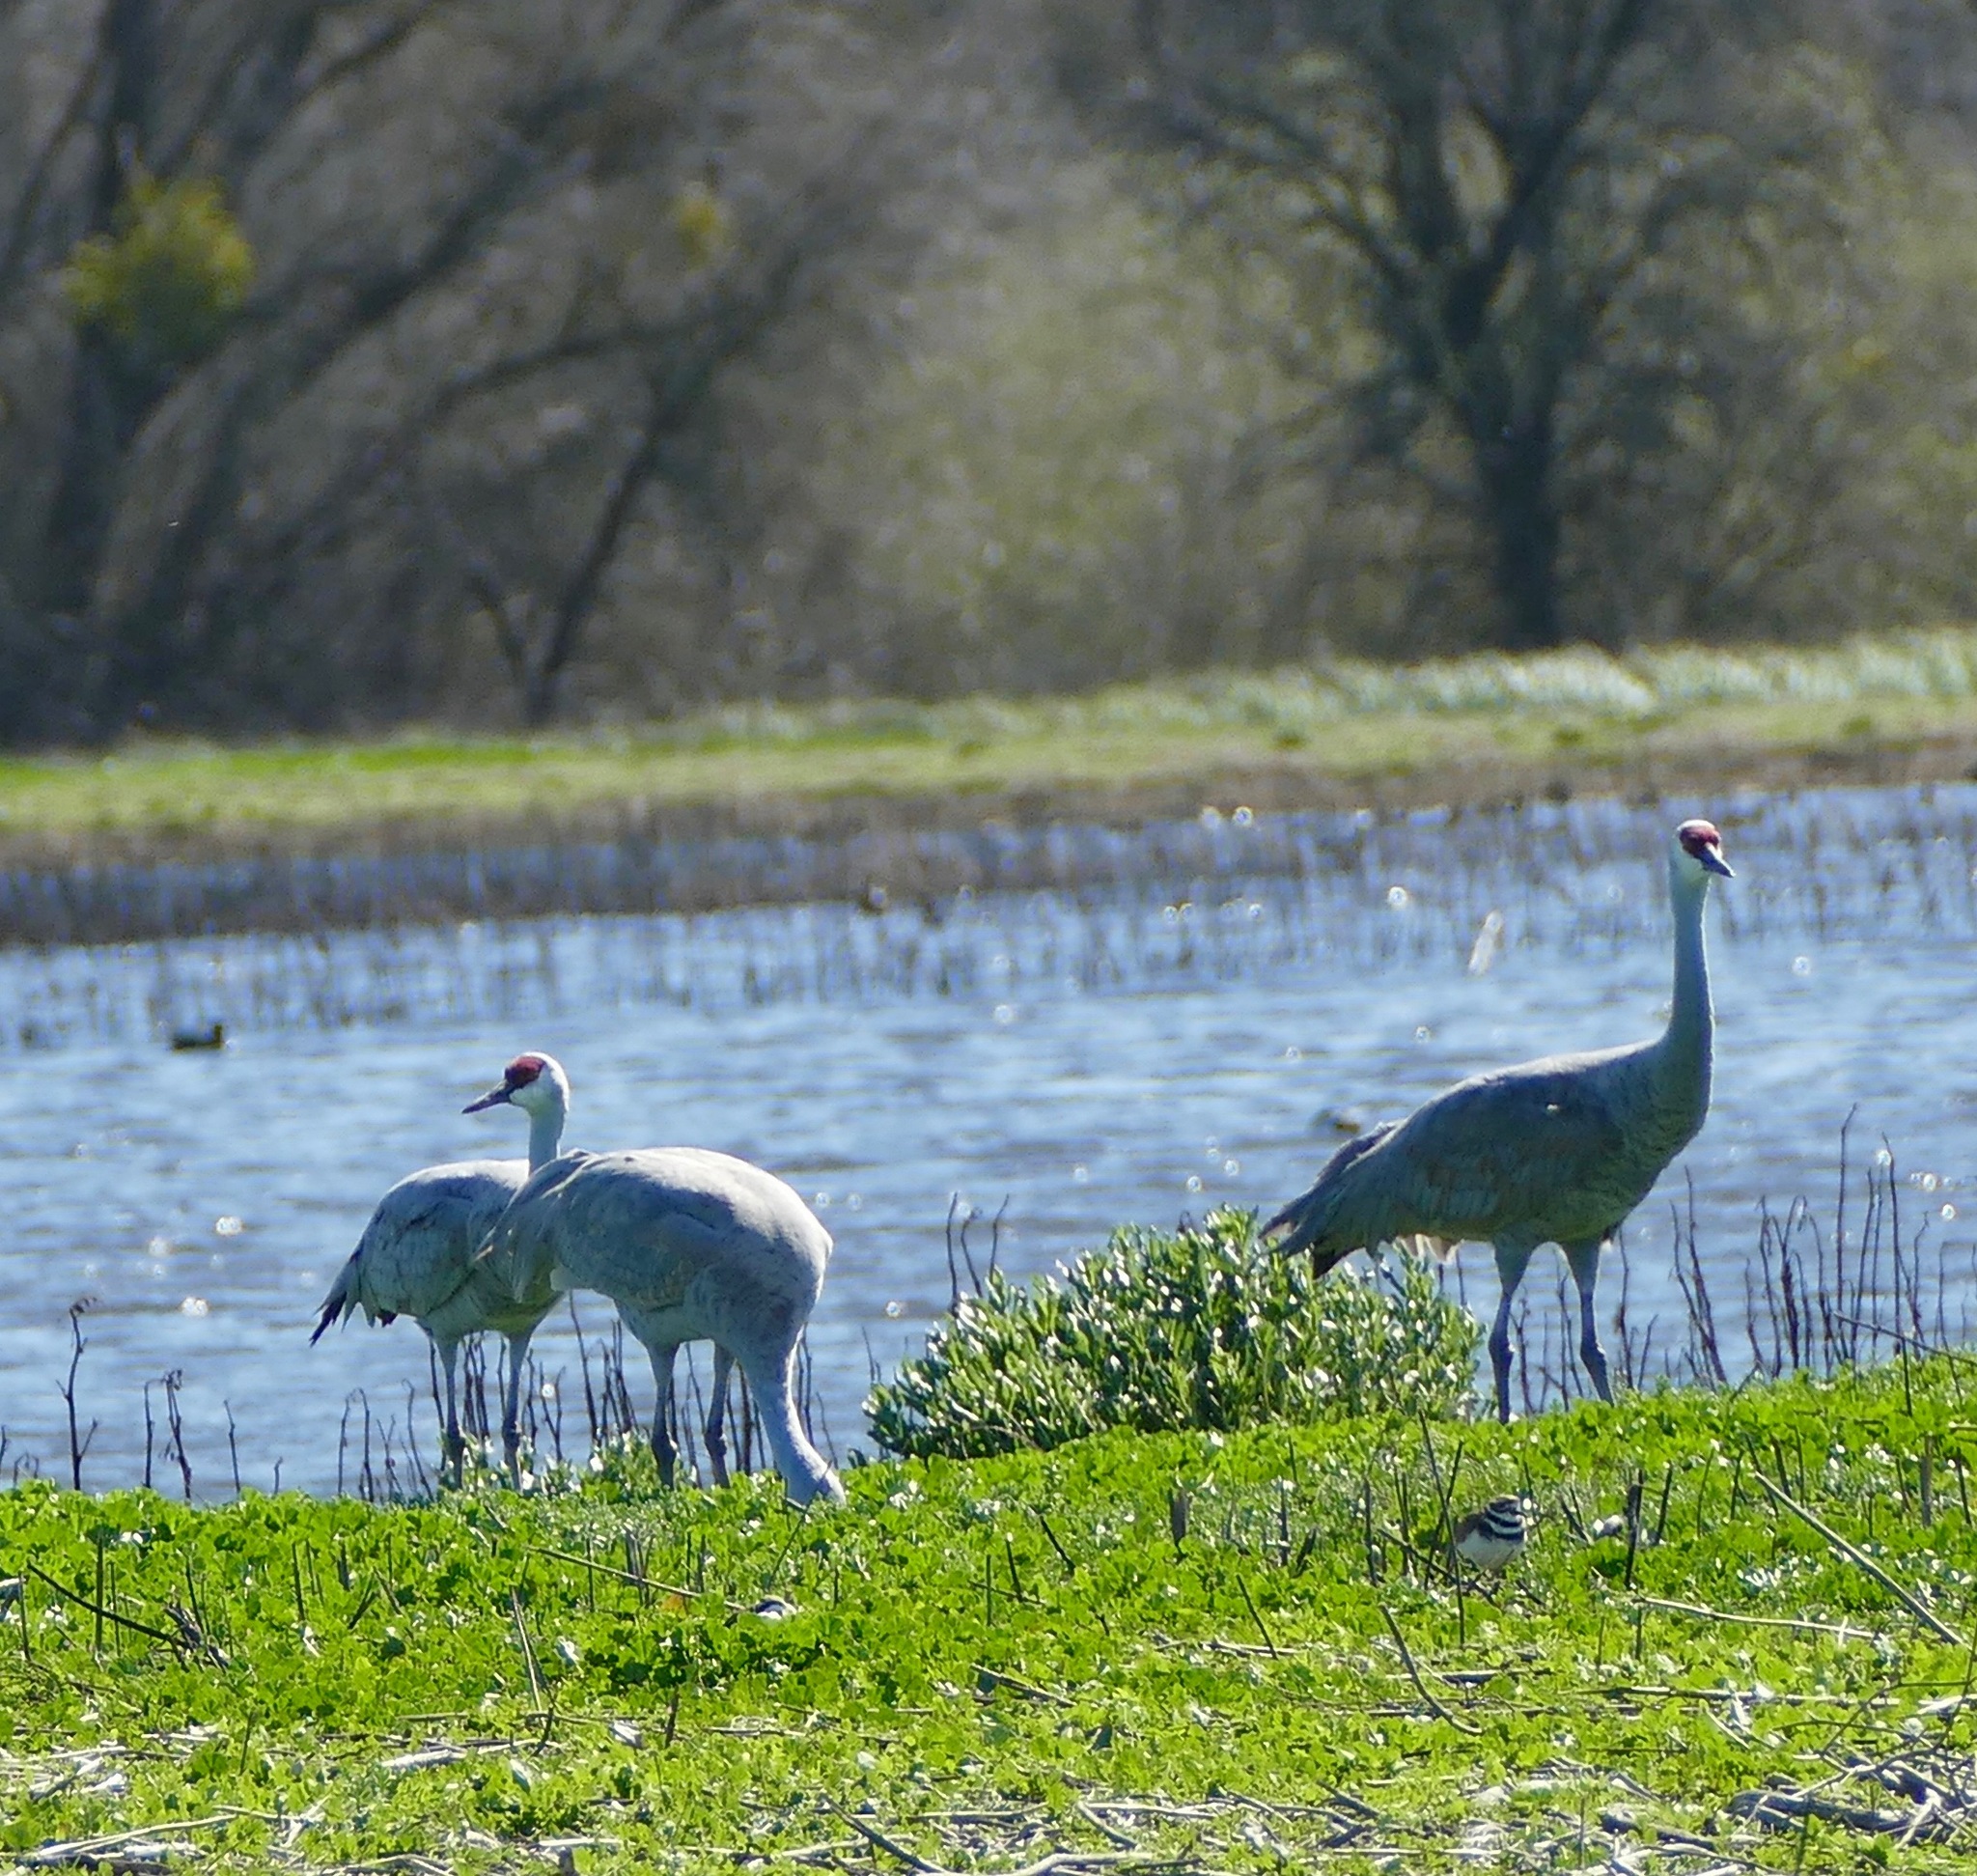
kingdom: Animalia
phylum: Chordata
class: Aves
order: Gruiformes
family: Gruidae
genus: Grus
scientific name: Grus canadensis
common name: Sandhill crane
